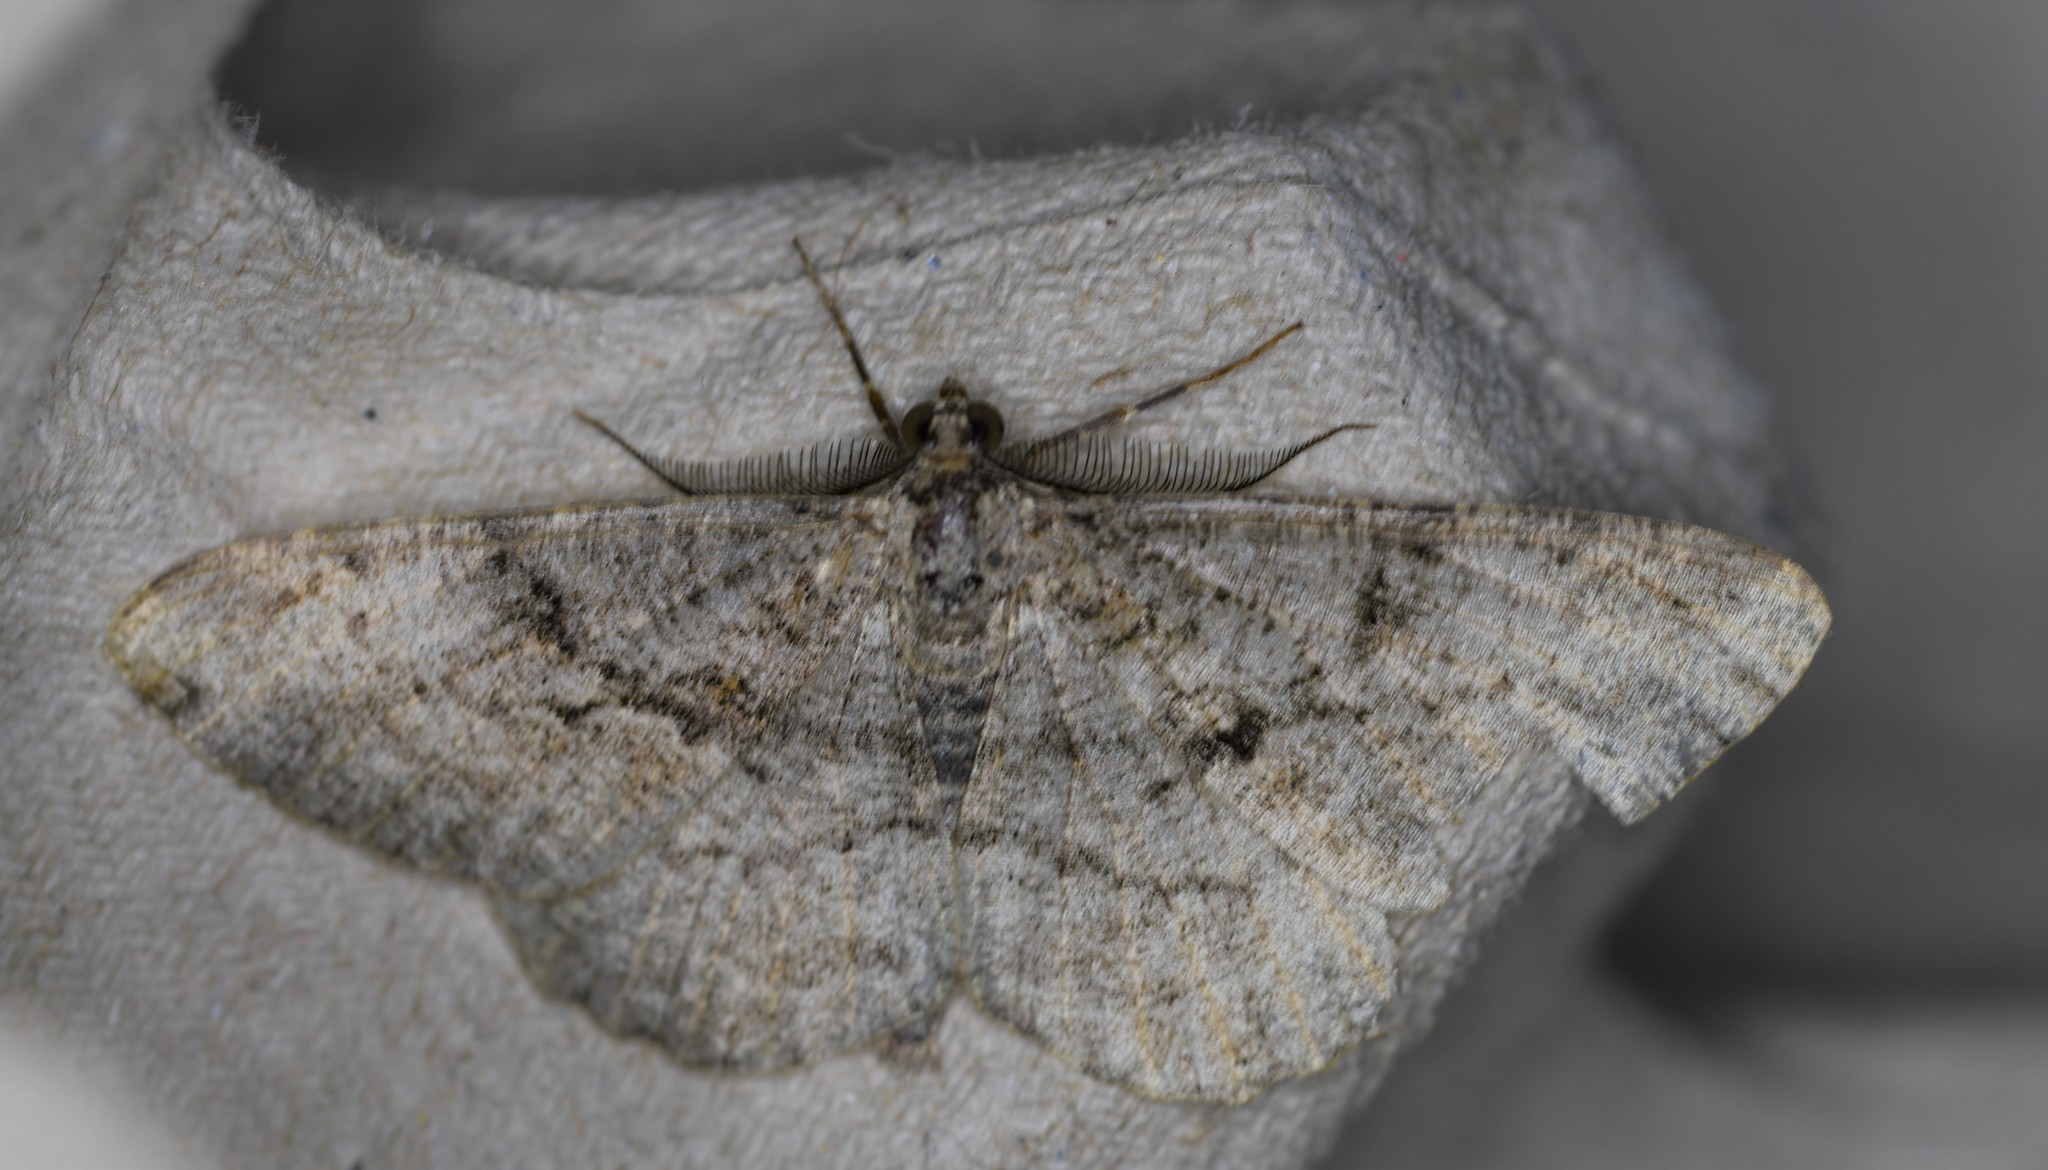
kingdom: Animalia
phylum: Arthropoda
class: Insecta
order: Lepidoptera
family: Geometridae
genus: Peribatodes
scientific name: Peribatodes rhomboidaria
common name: Willow beauty
